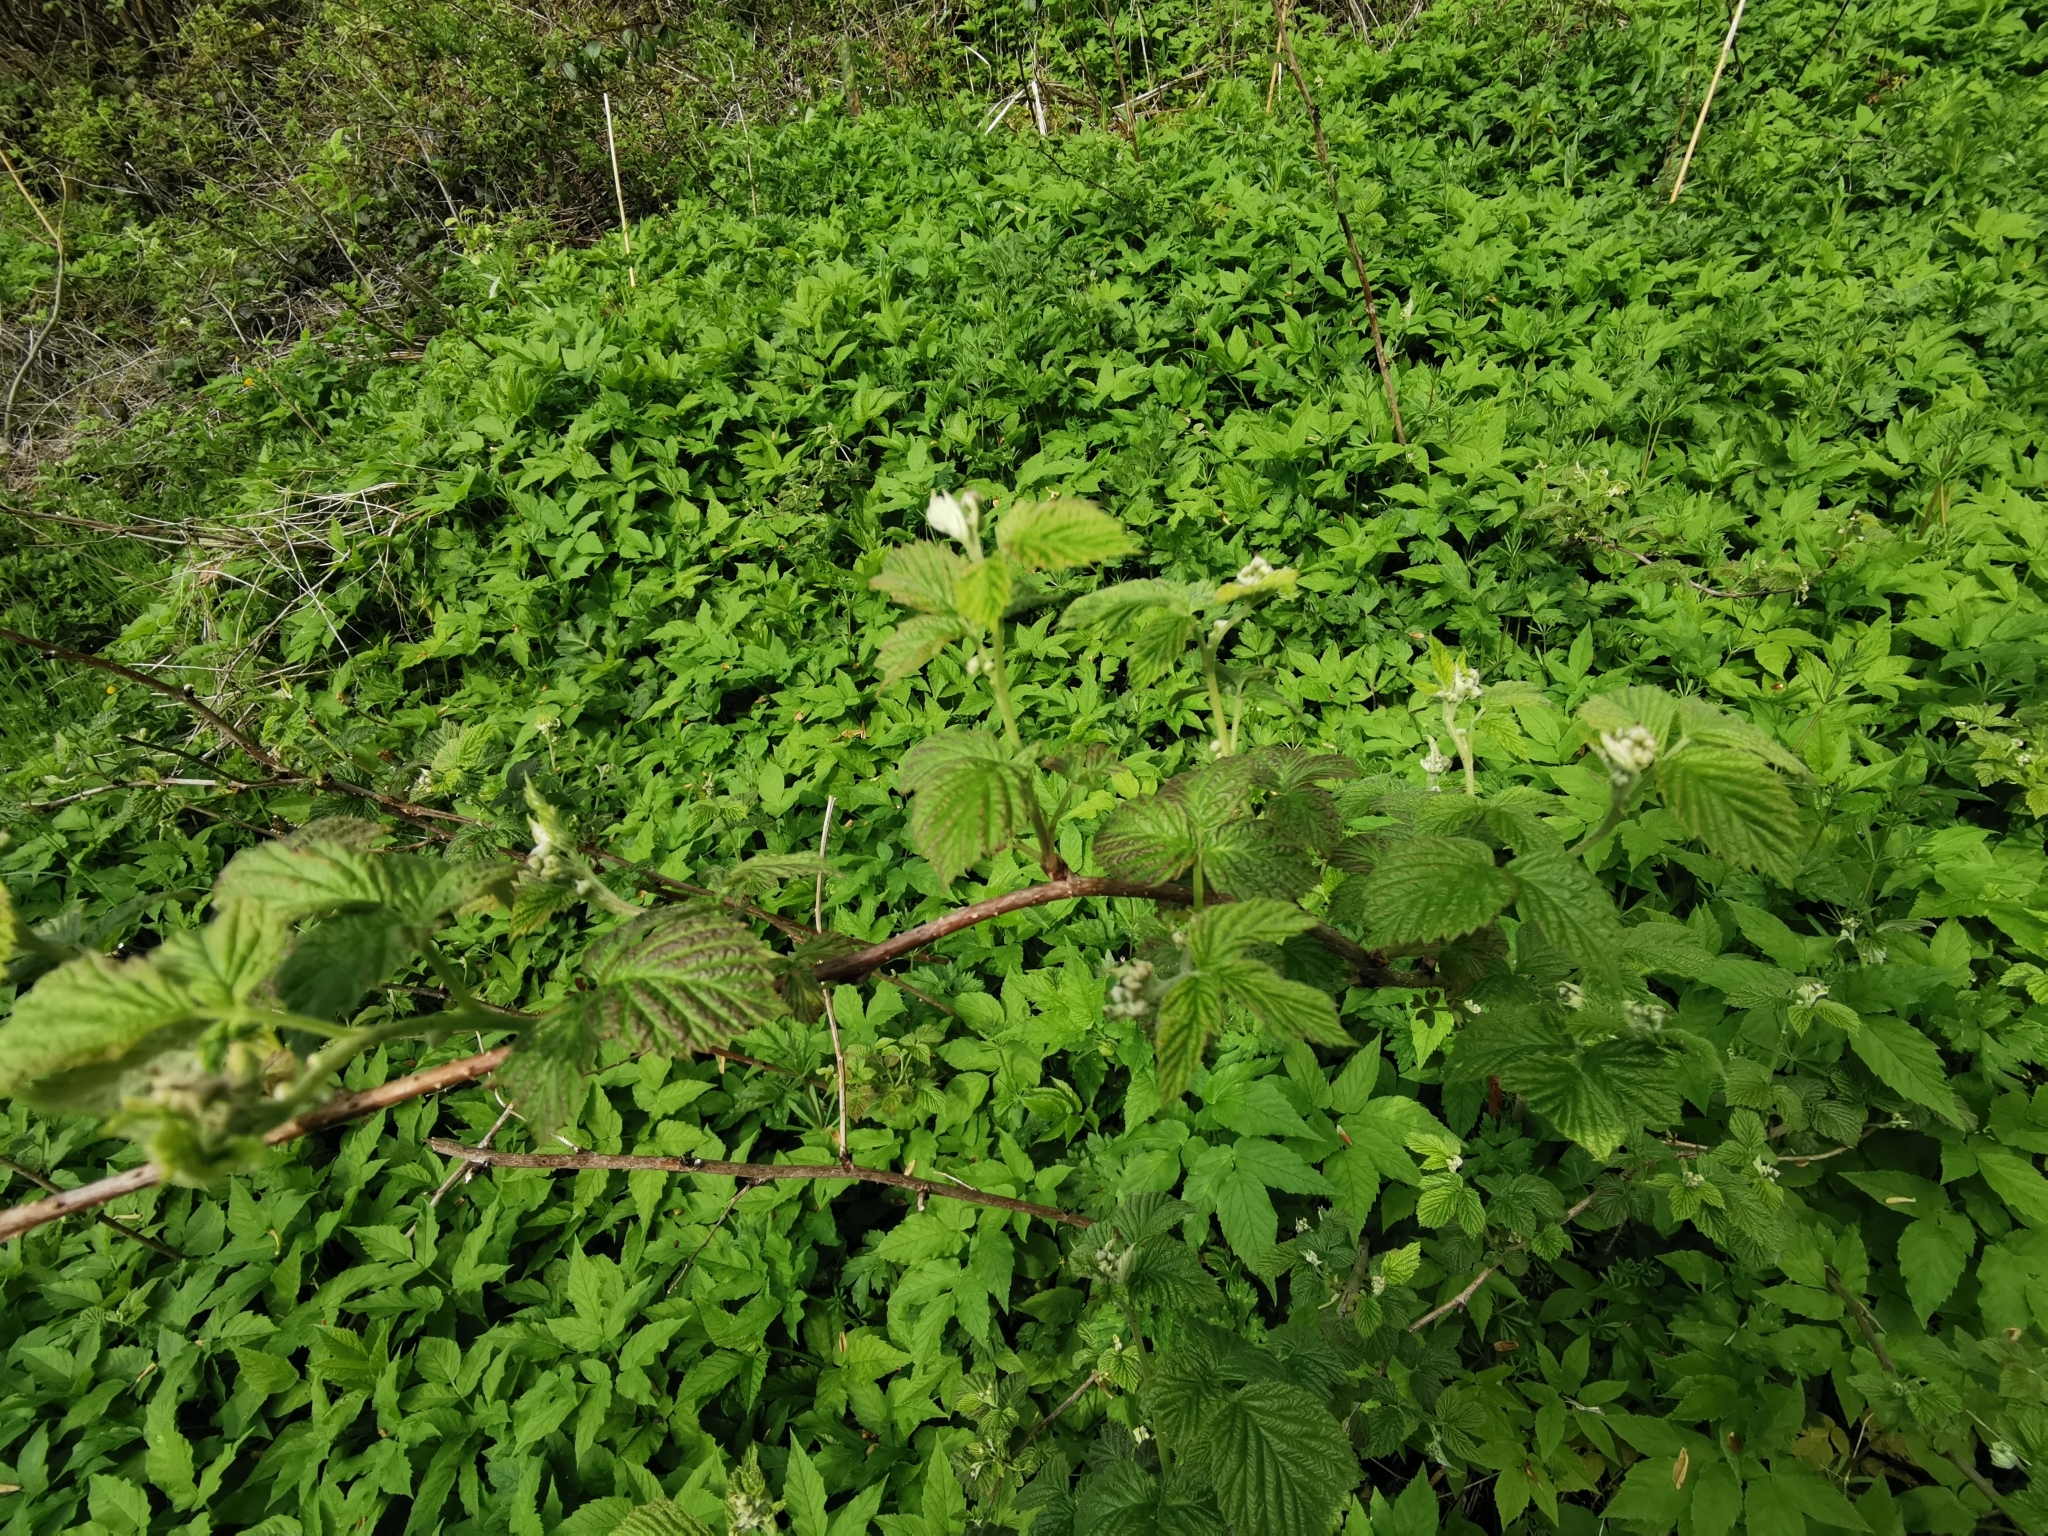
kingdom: Plantae
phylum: Tracheophyta
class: Magnoliopsida
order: Rosales
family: Rosaceae
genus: Rubus
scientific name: Rubus idaeus
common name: Raspberry
